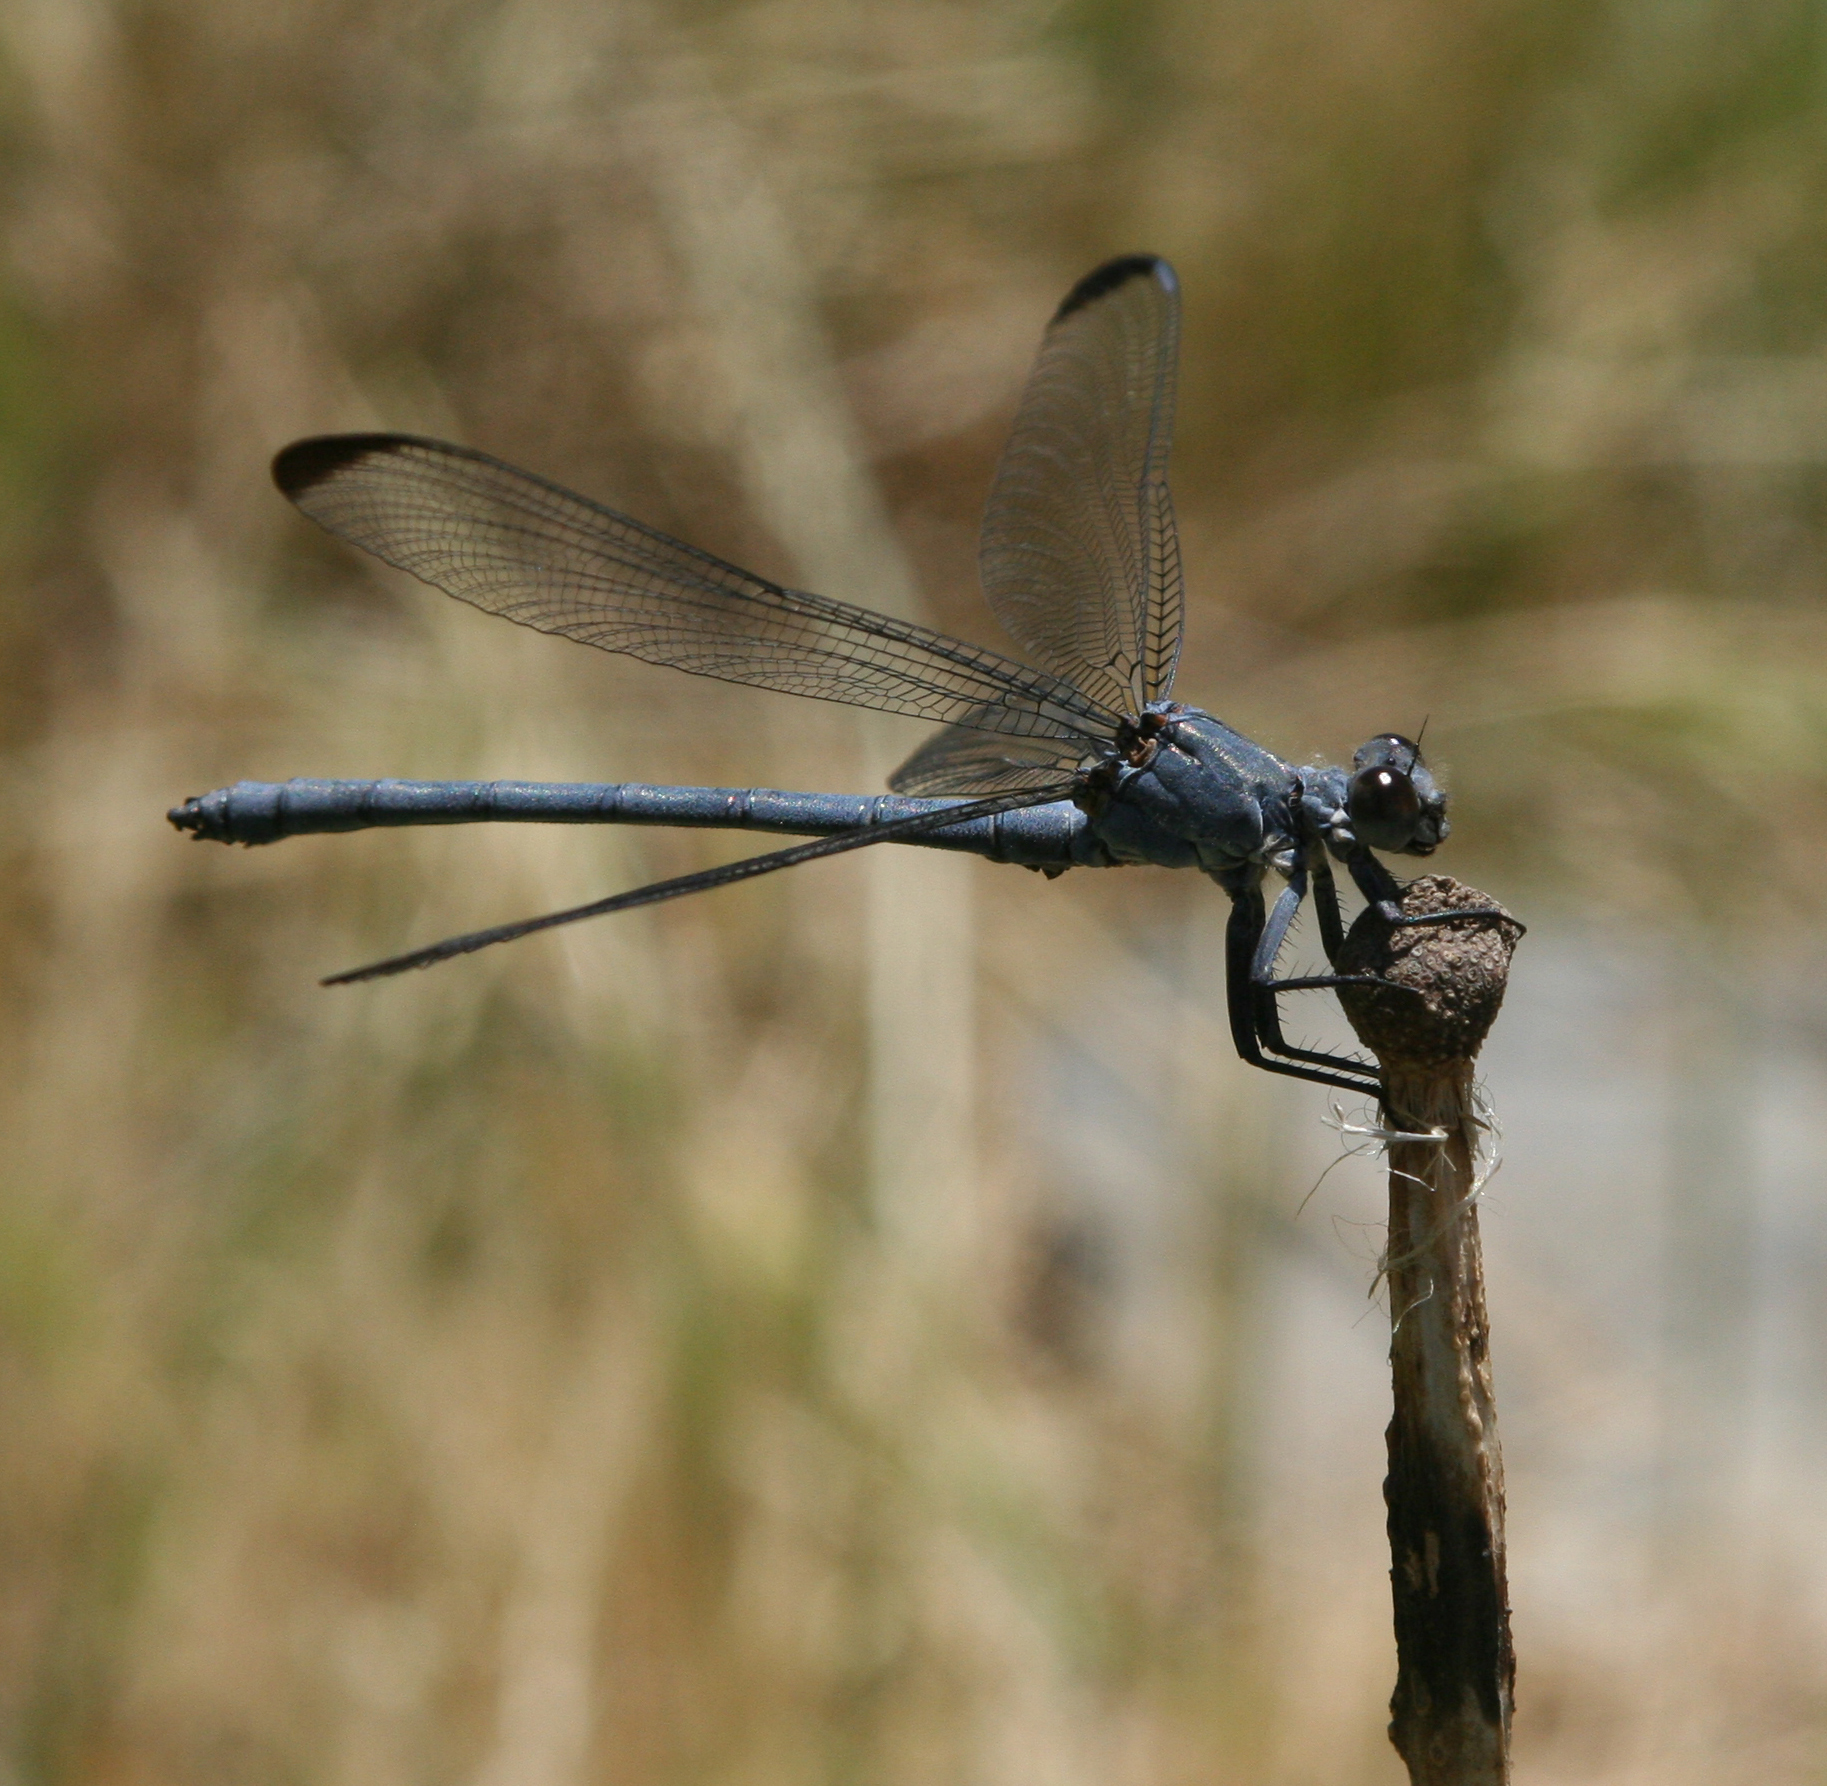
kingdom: Animalia
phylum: Arthropoda
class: Insecta
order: Odonata
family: Euphaeidae
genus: Epallage
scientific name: Epallage fatime
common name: Odalisque
